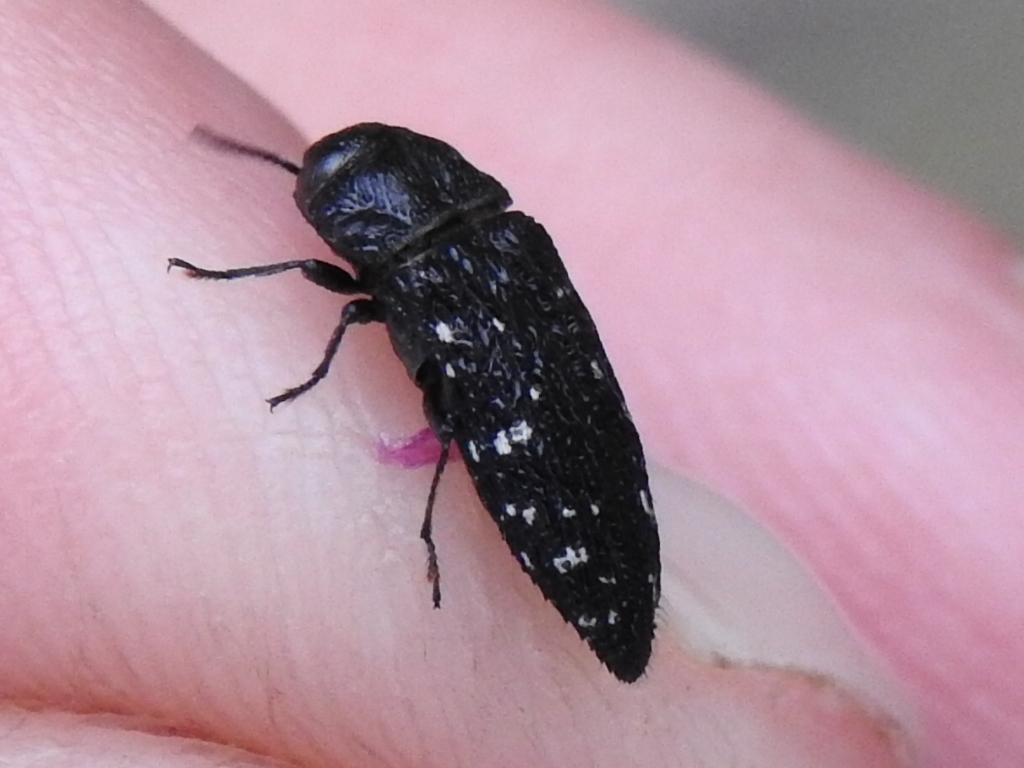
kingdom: Animalia
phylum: Arthropoda
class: Insecta
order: Coleoptera
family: Buprestidae
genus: Acmaeodera
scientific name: Acmaeodera ornatoides
